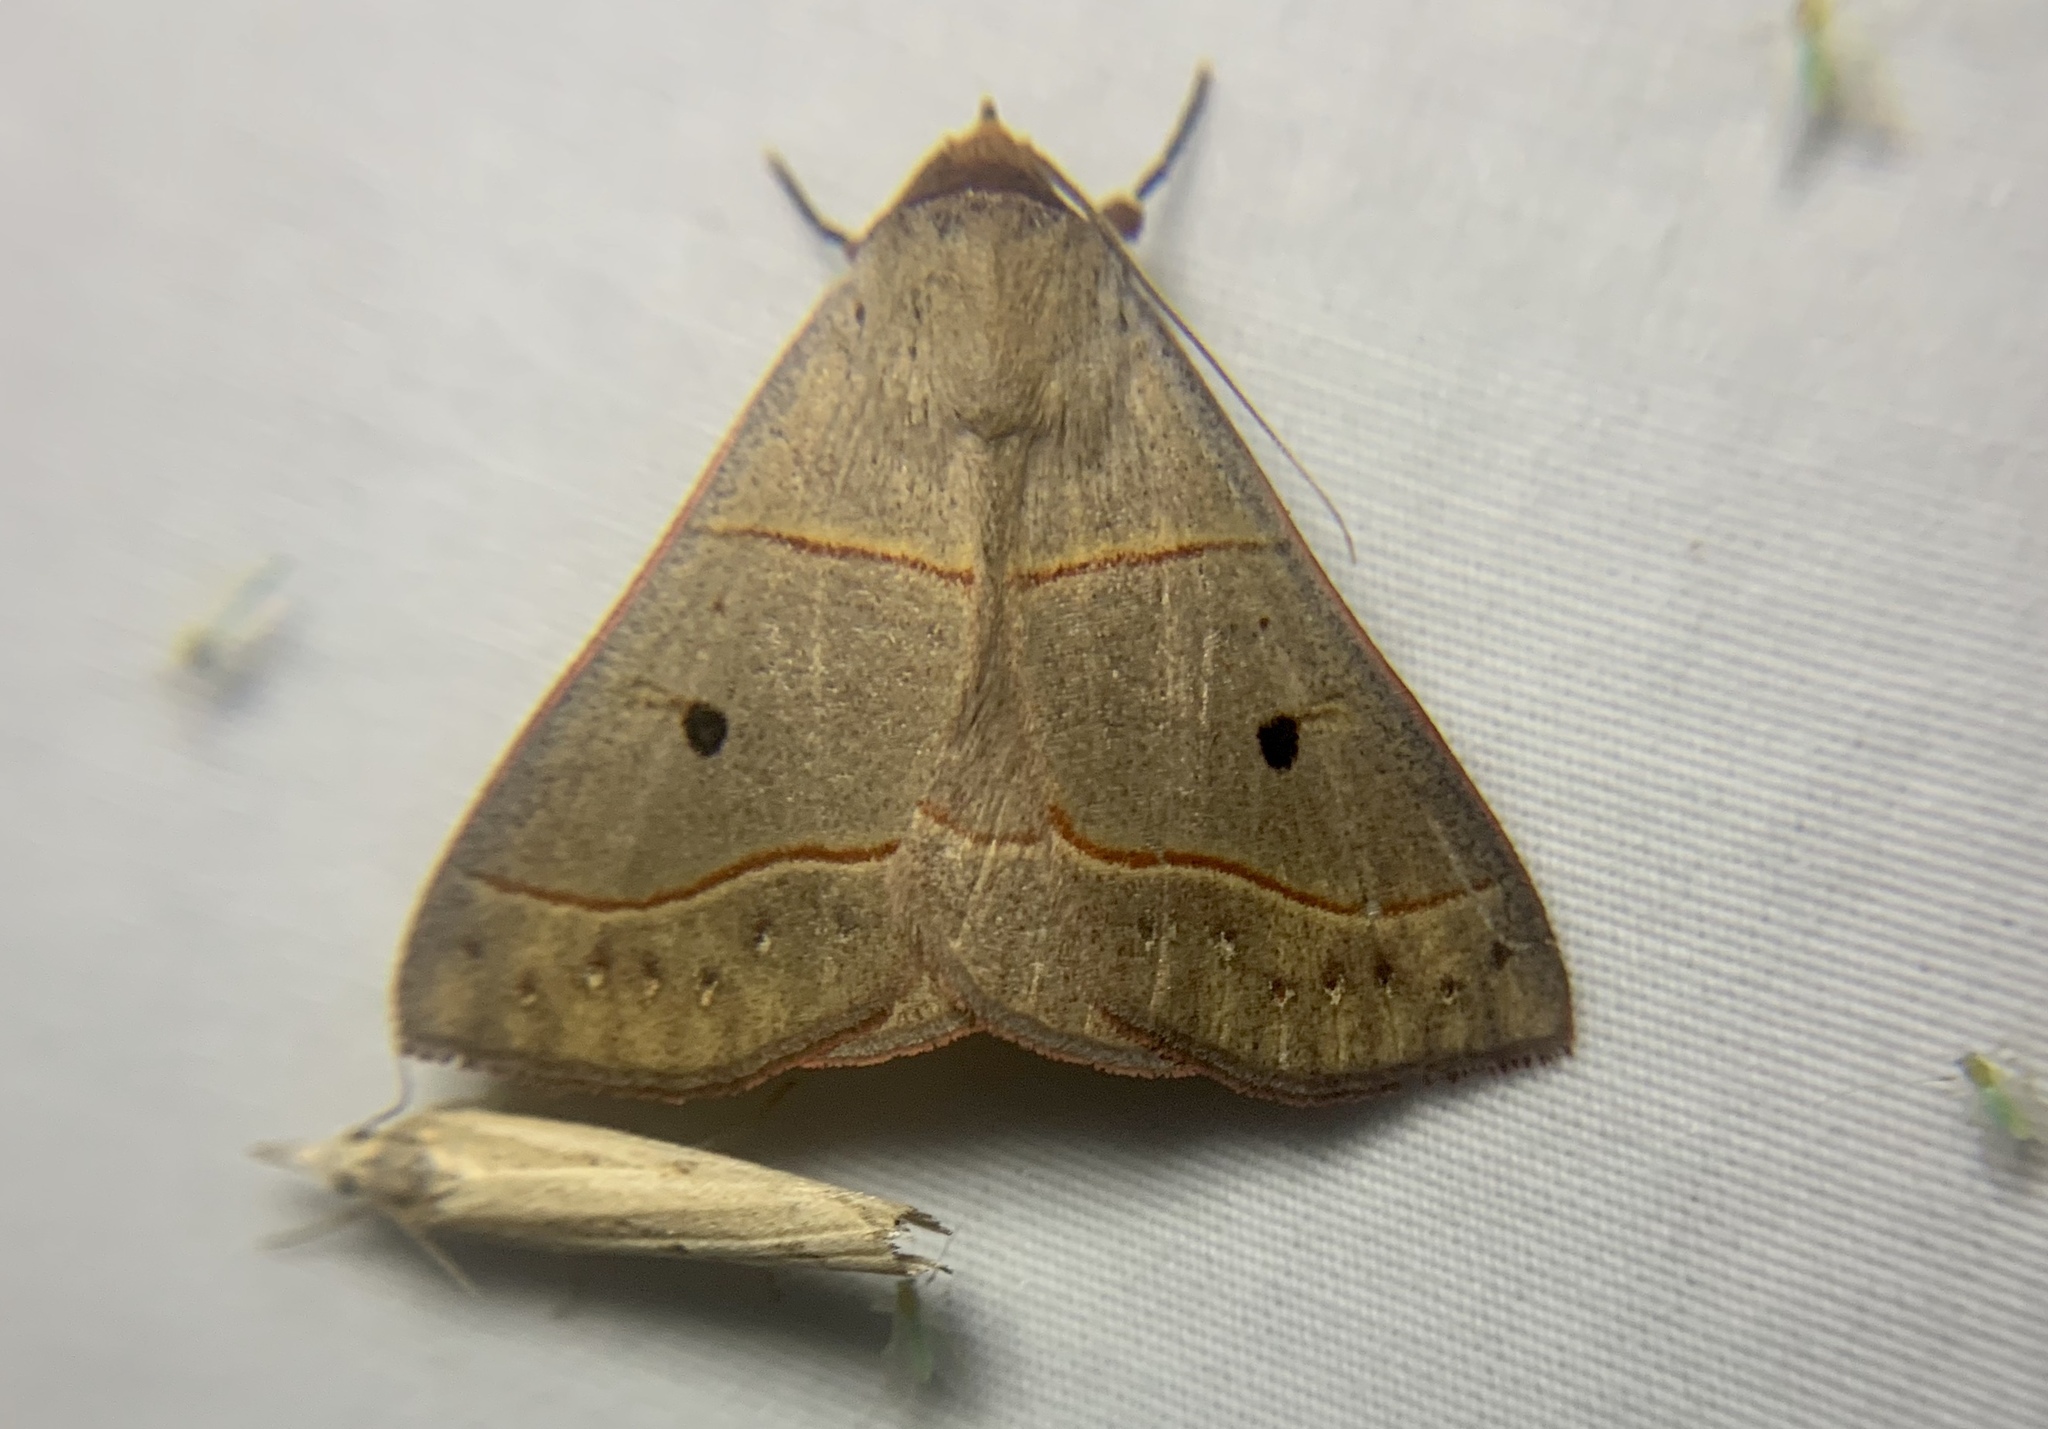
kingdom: Animalia
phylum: Arthropoda
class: Insecta
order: Lepidoptera
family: Erebidae
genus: Panopoda
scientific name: Panopoda rufimargo
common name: Red-lined panopoda moth
